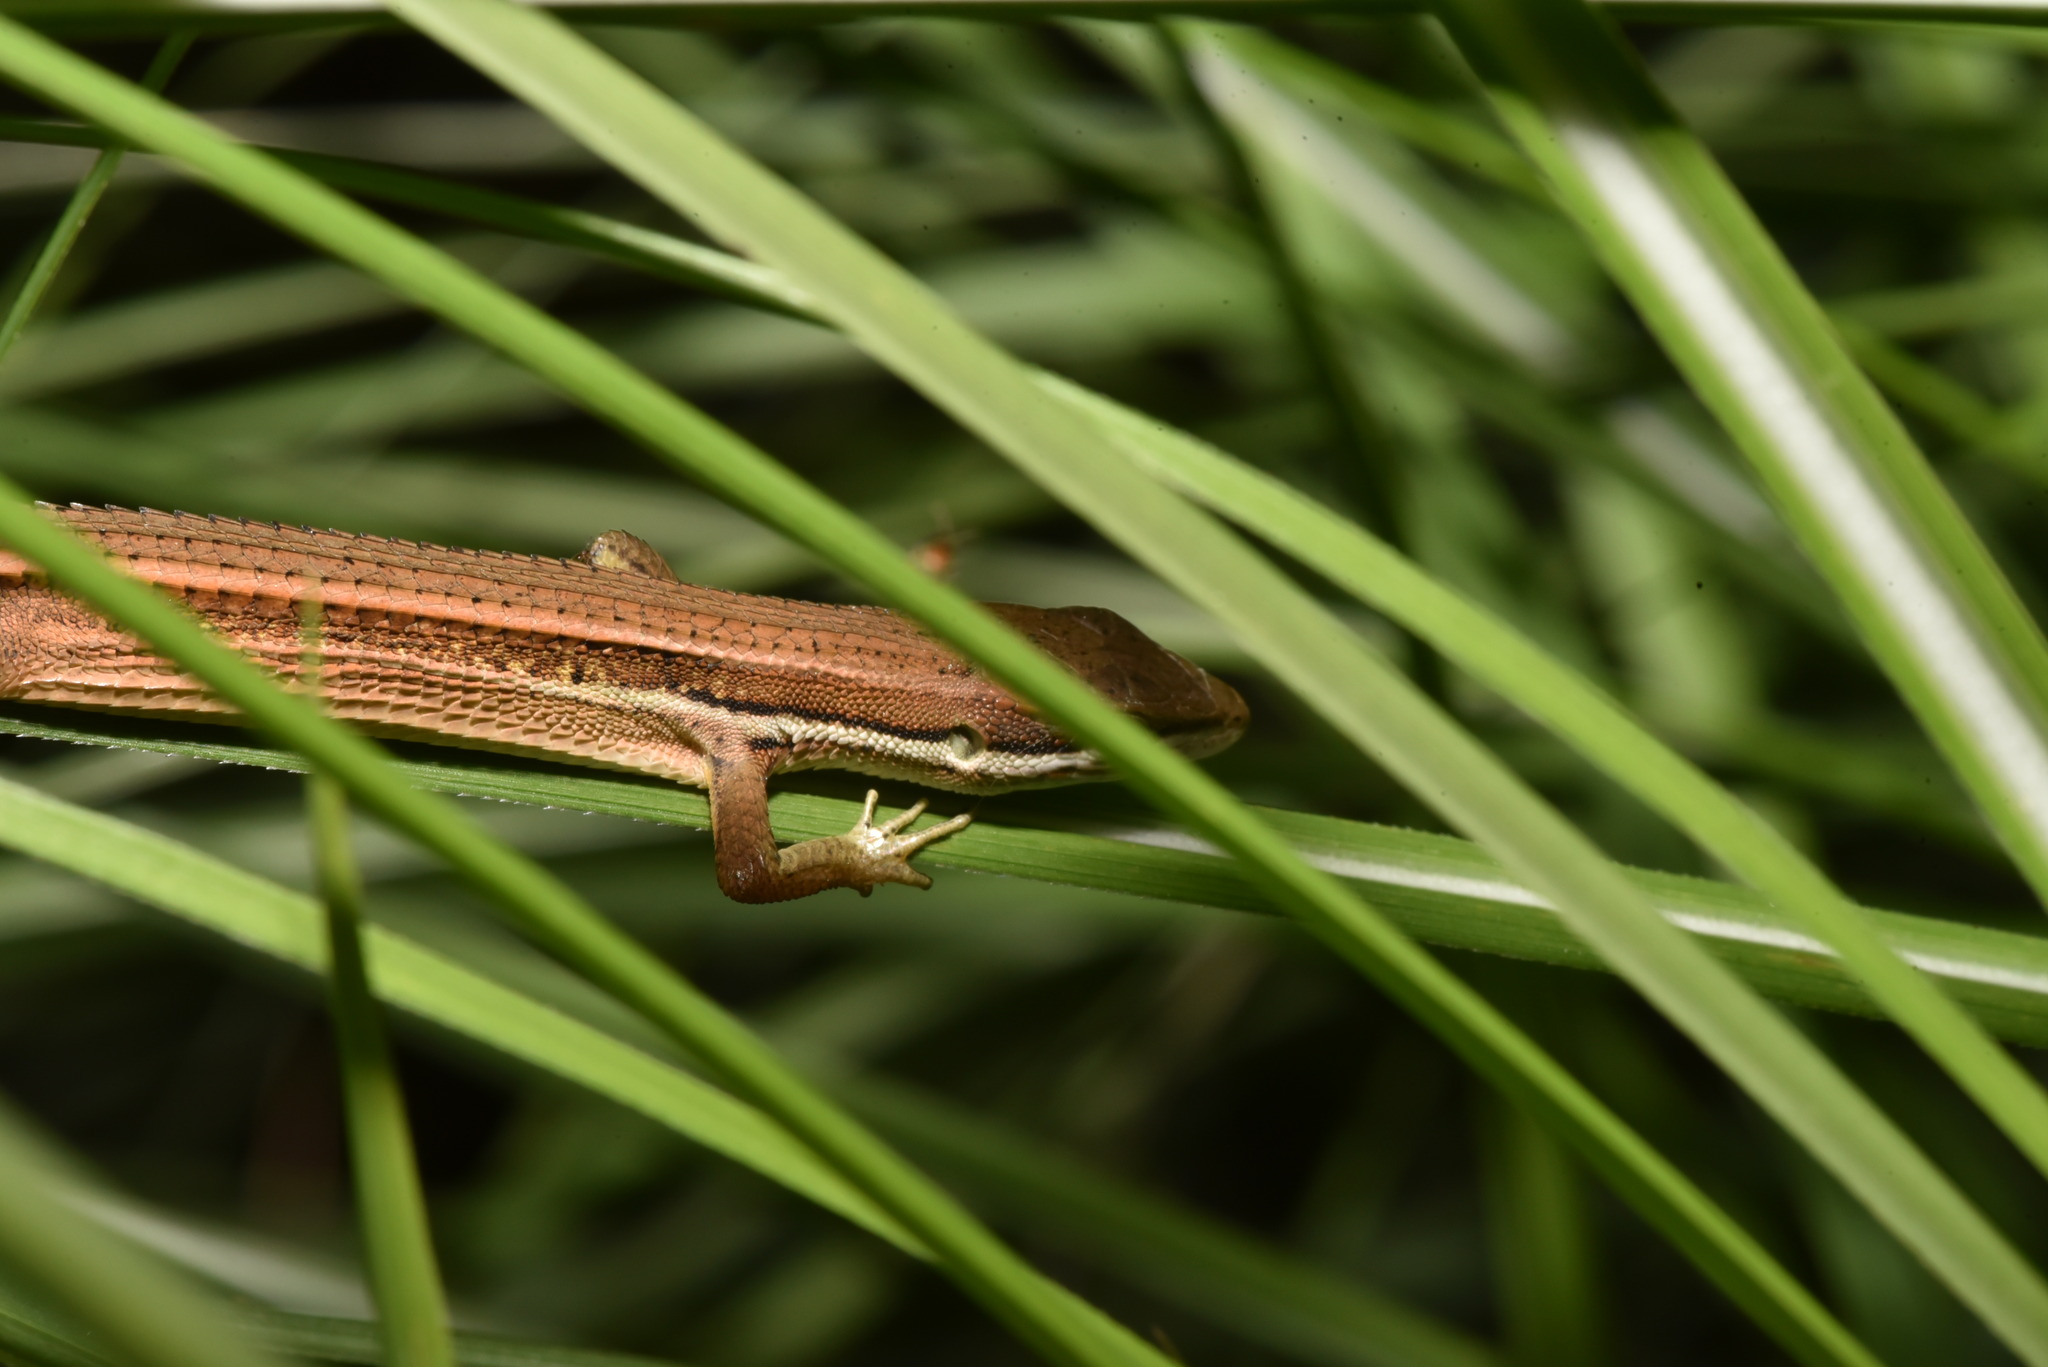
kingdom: Animalia
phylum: Chordata
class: Squamata
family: Lacertidae
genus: Takydromus
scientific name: Takydromus luyeanus
